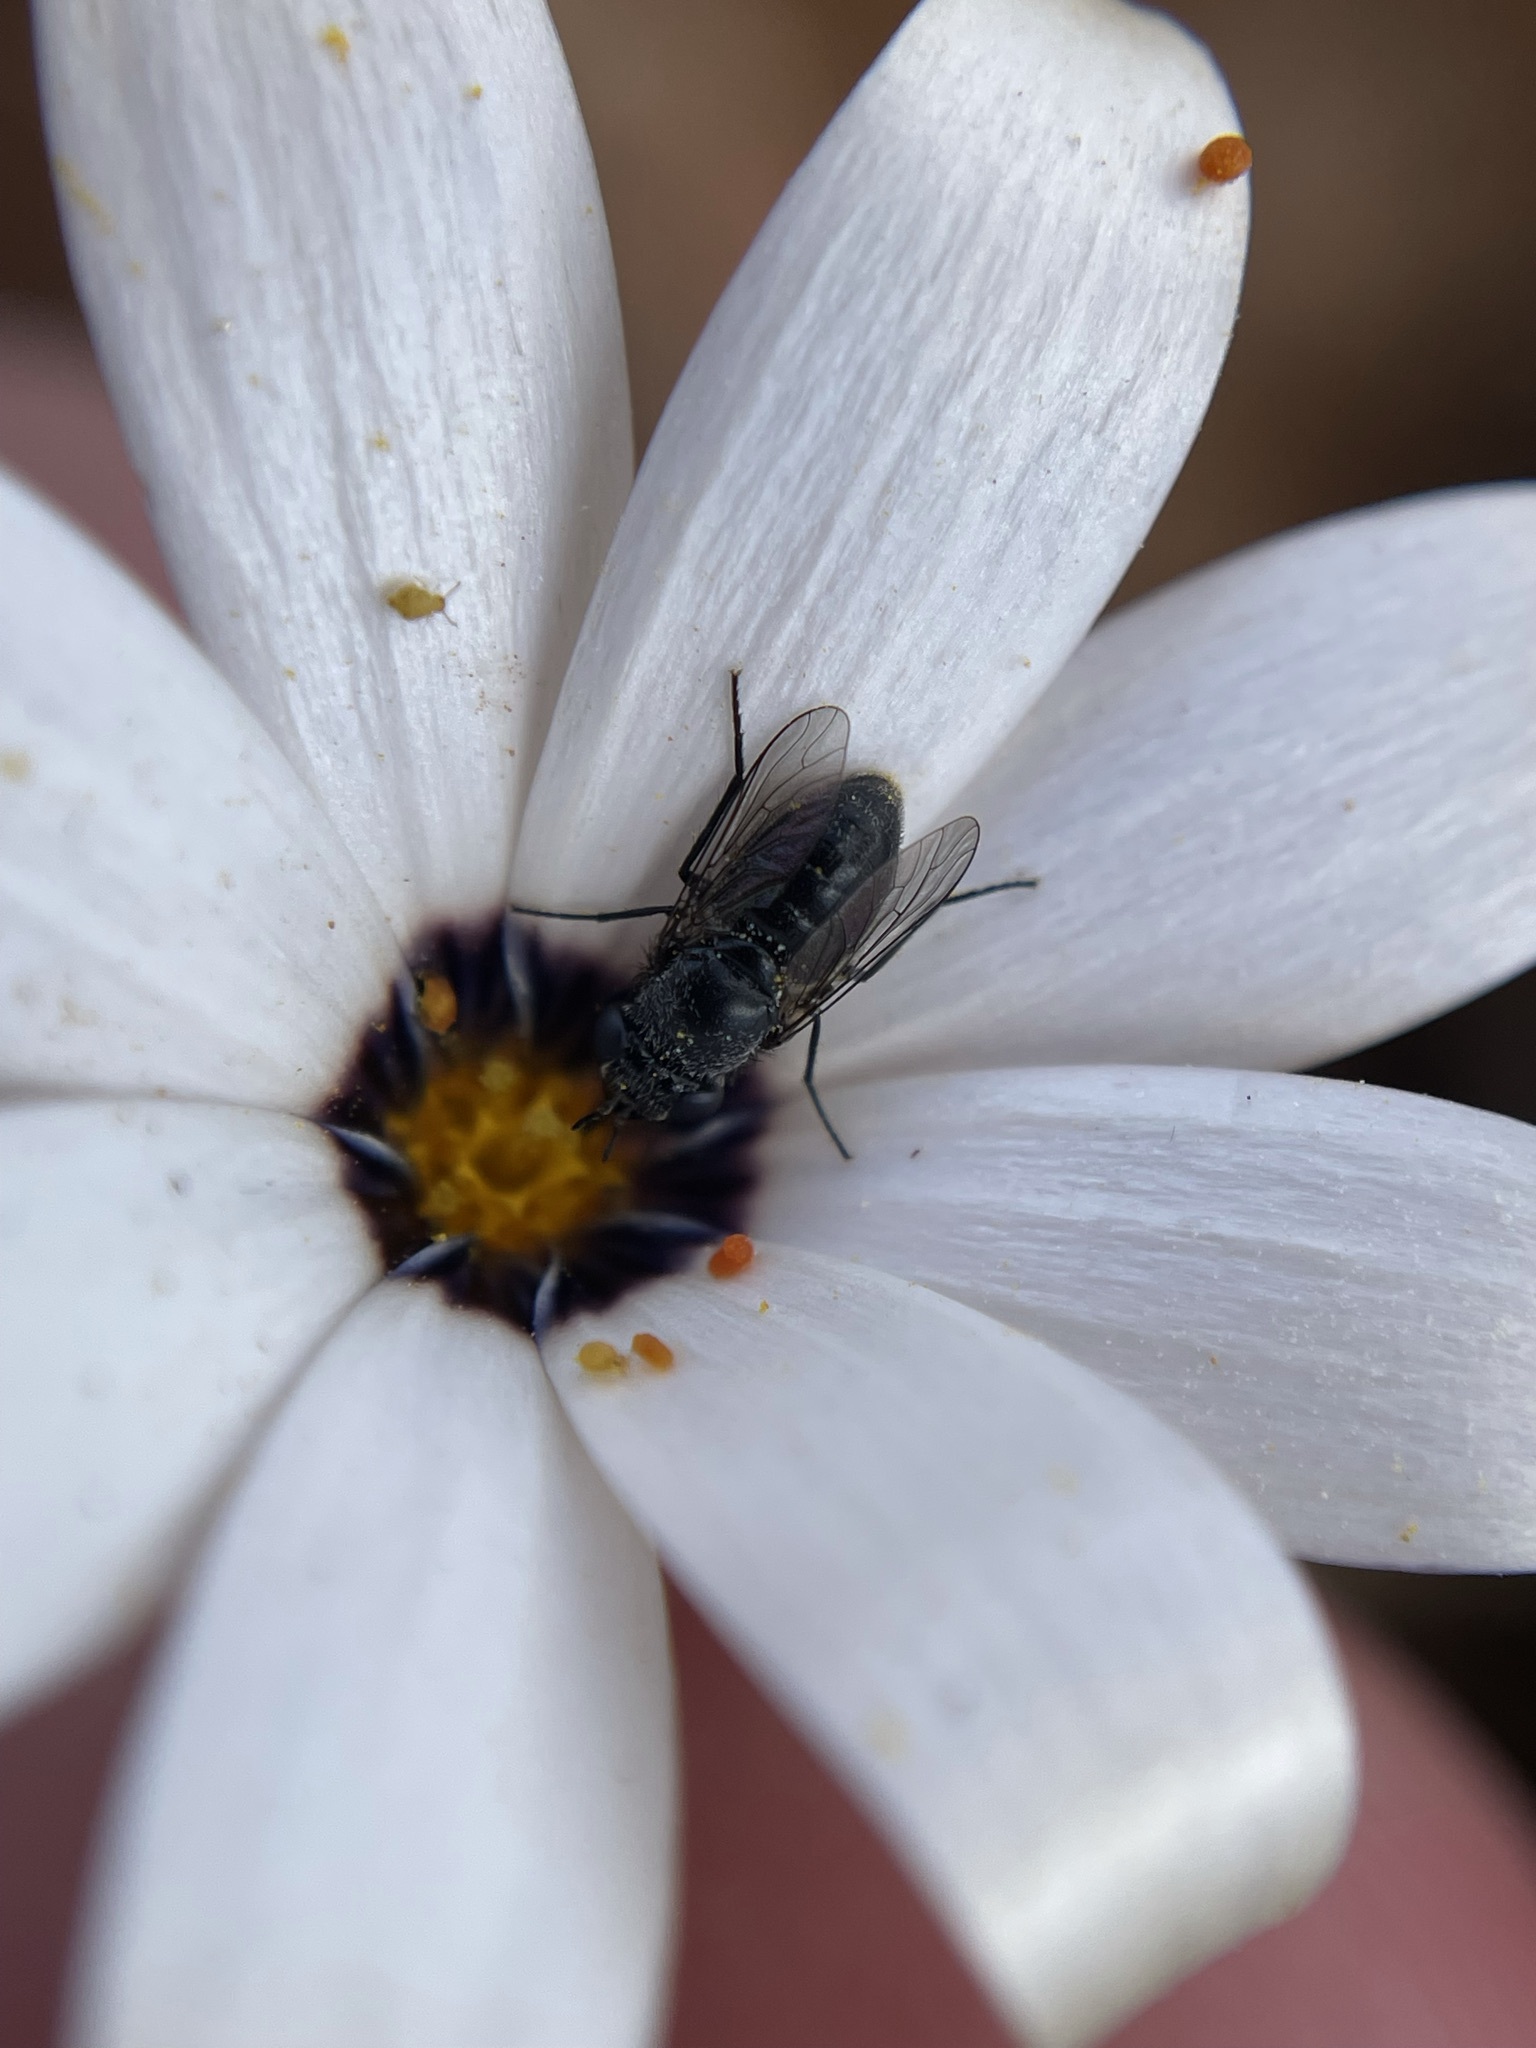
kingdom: Animalia
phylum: Arthropoda
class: Insecta
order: Diptera
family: Bombyliidae
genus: Megapalpus
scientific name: Megapalpus capensis
